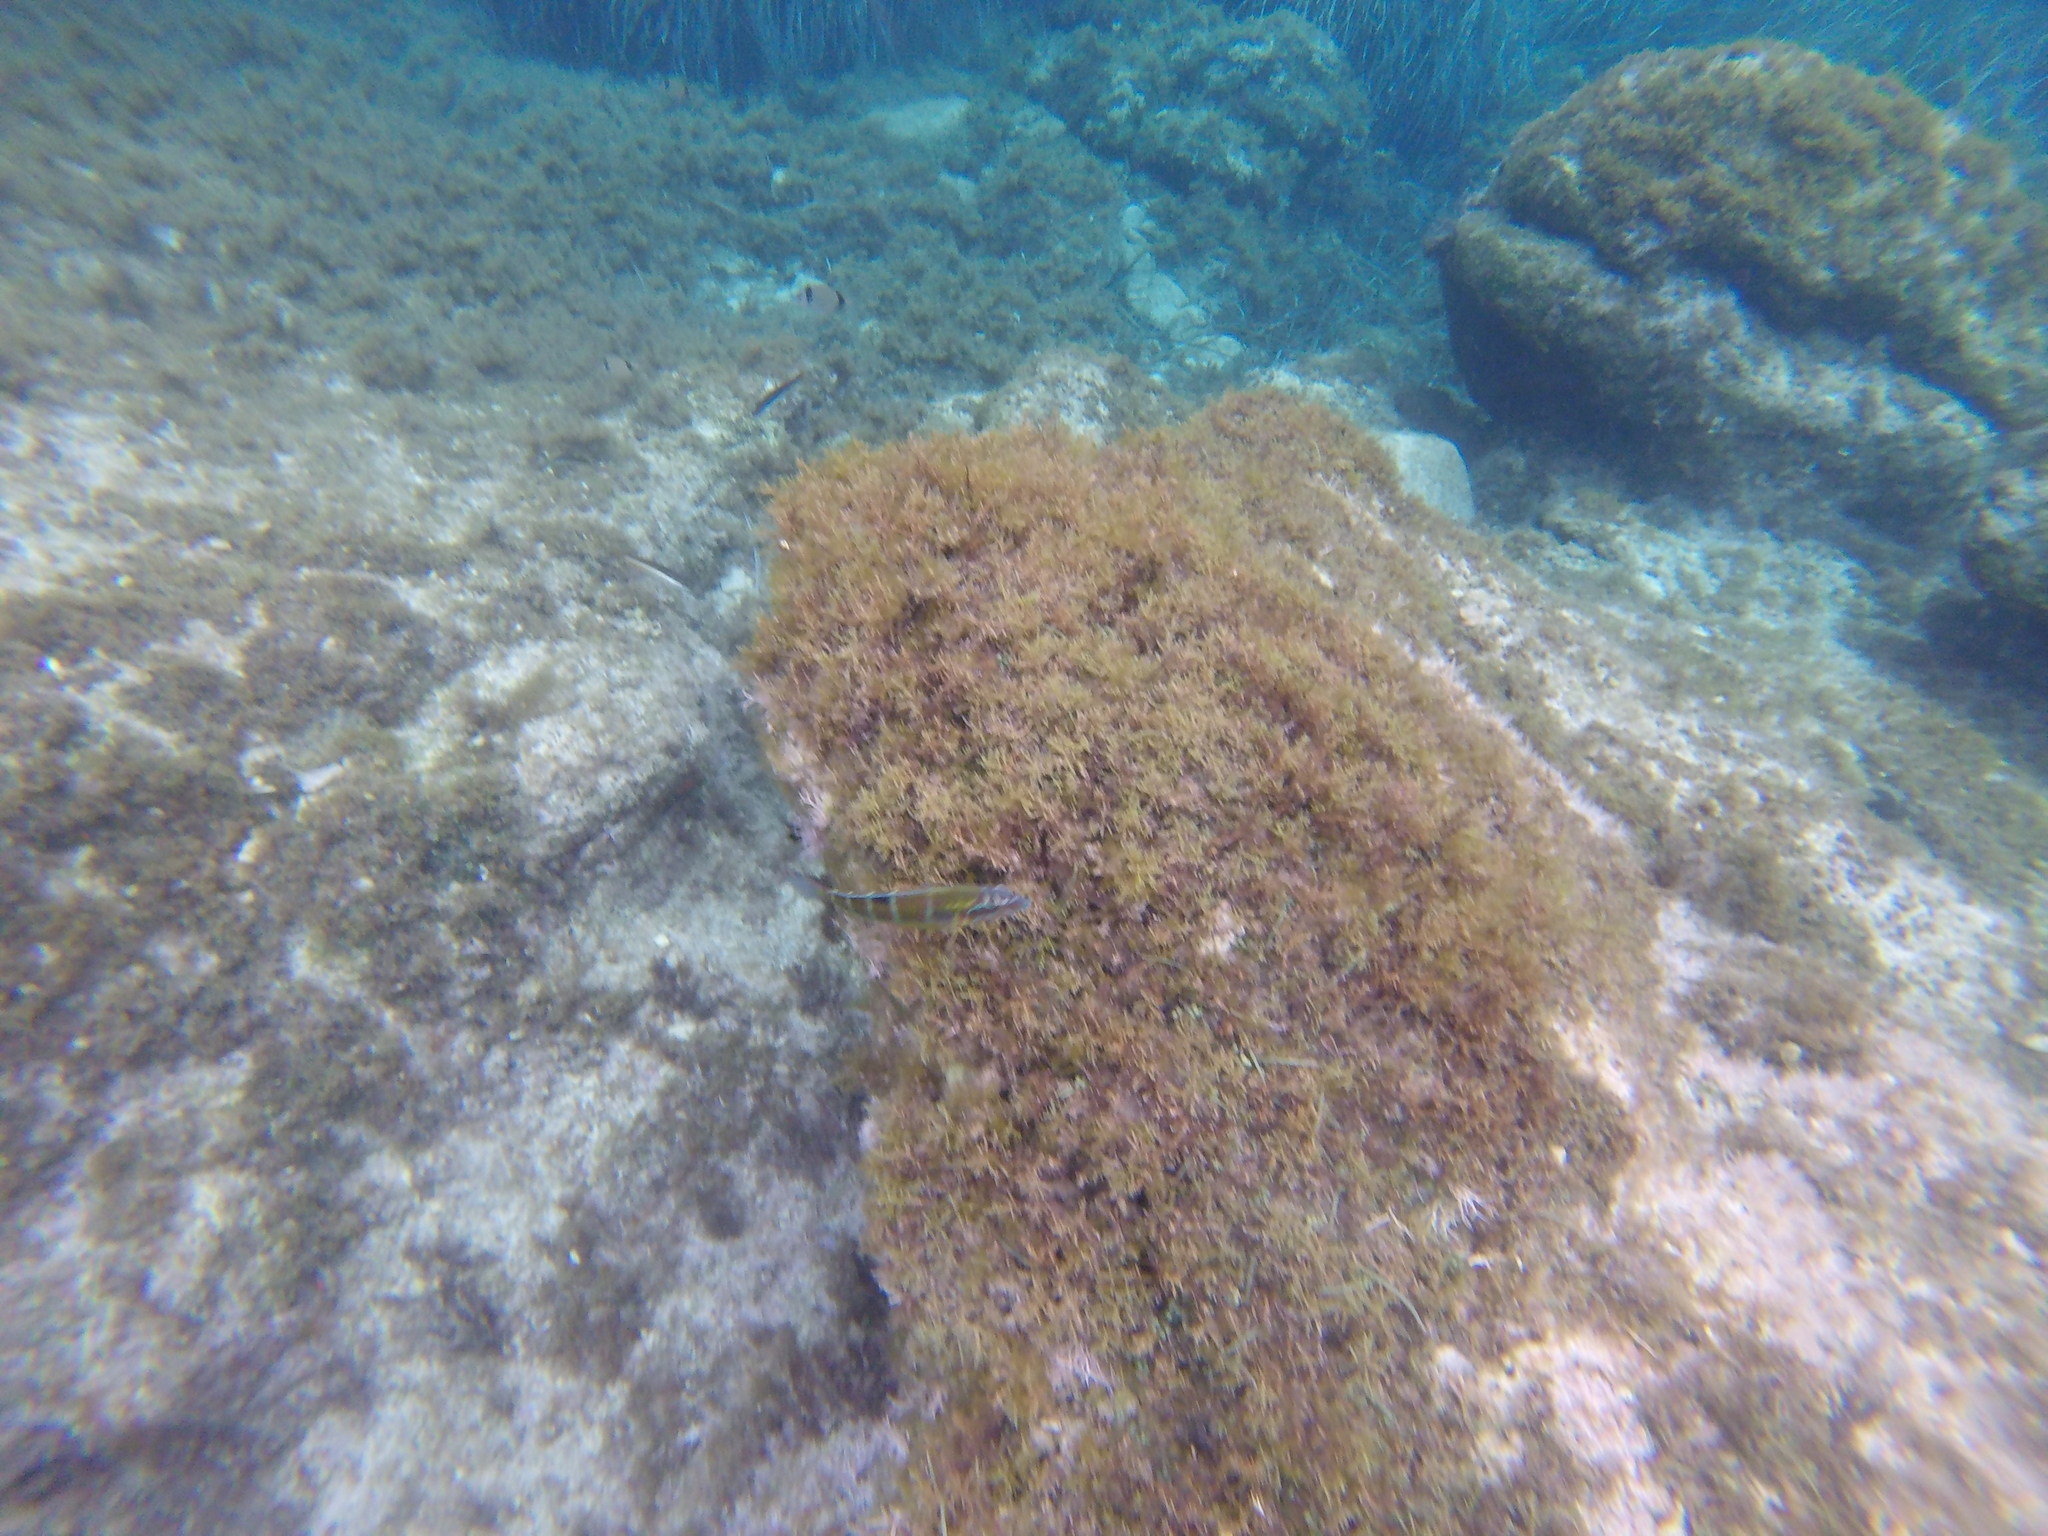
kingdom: Animalia
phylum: Chordata
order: Perciformes
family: Labridae
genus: Thalassoma
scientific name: Thalassoma pavo
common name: Ornate wrasse
